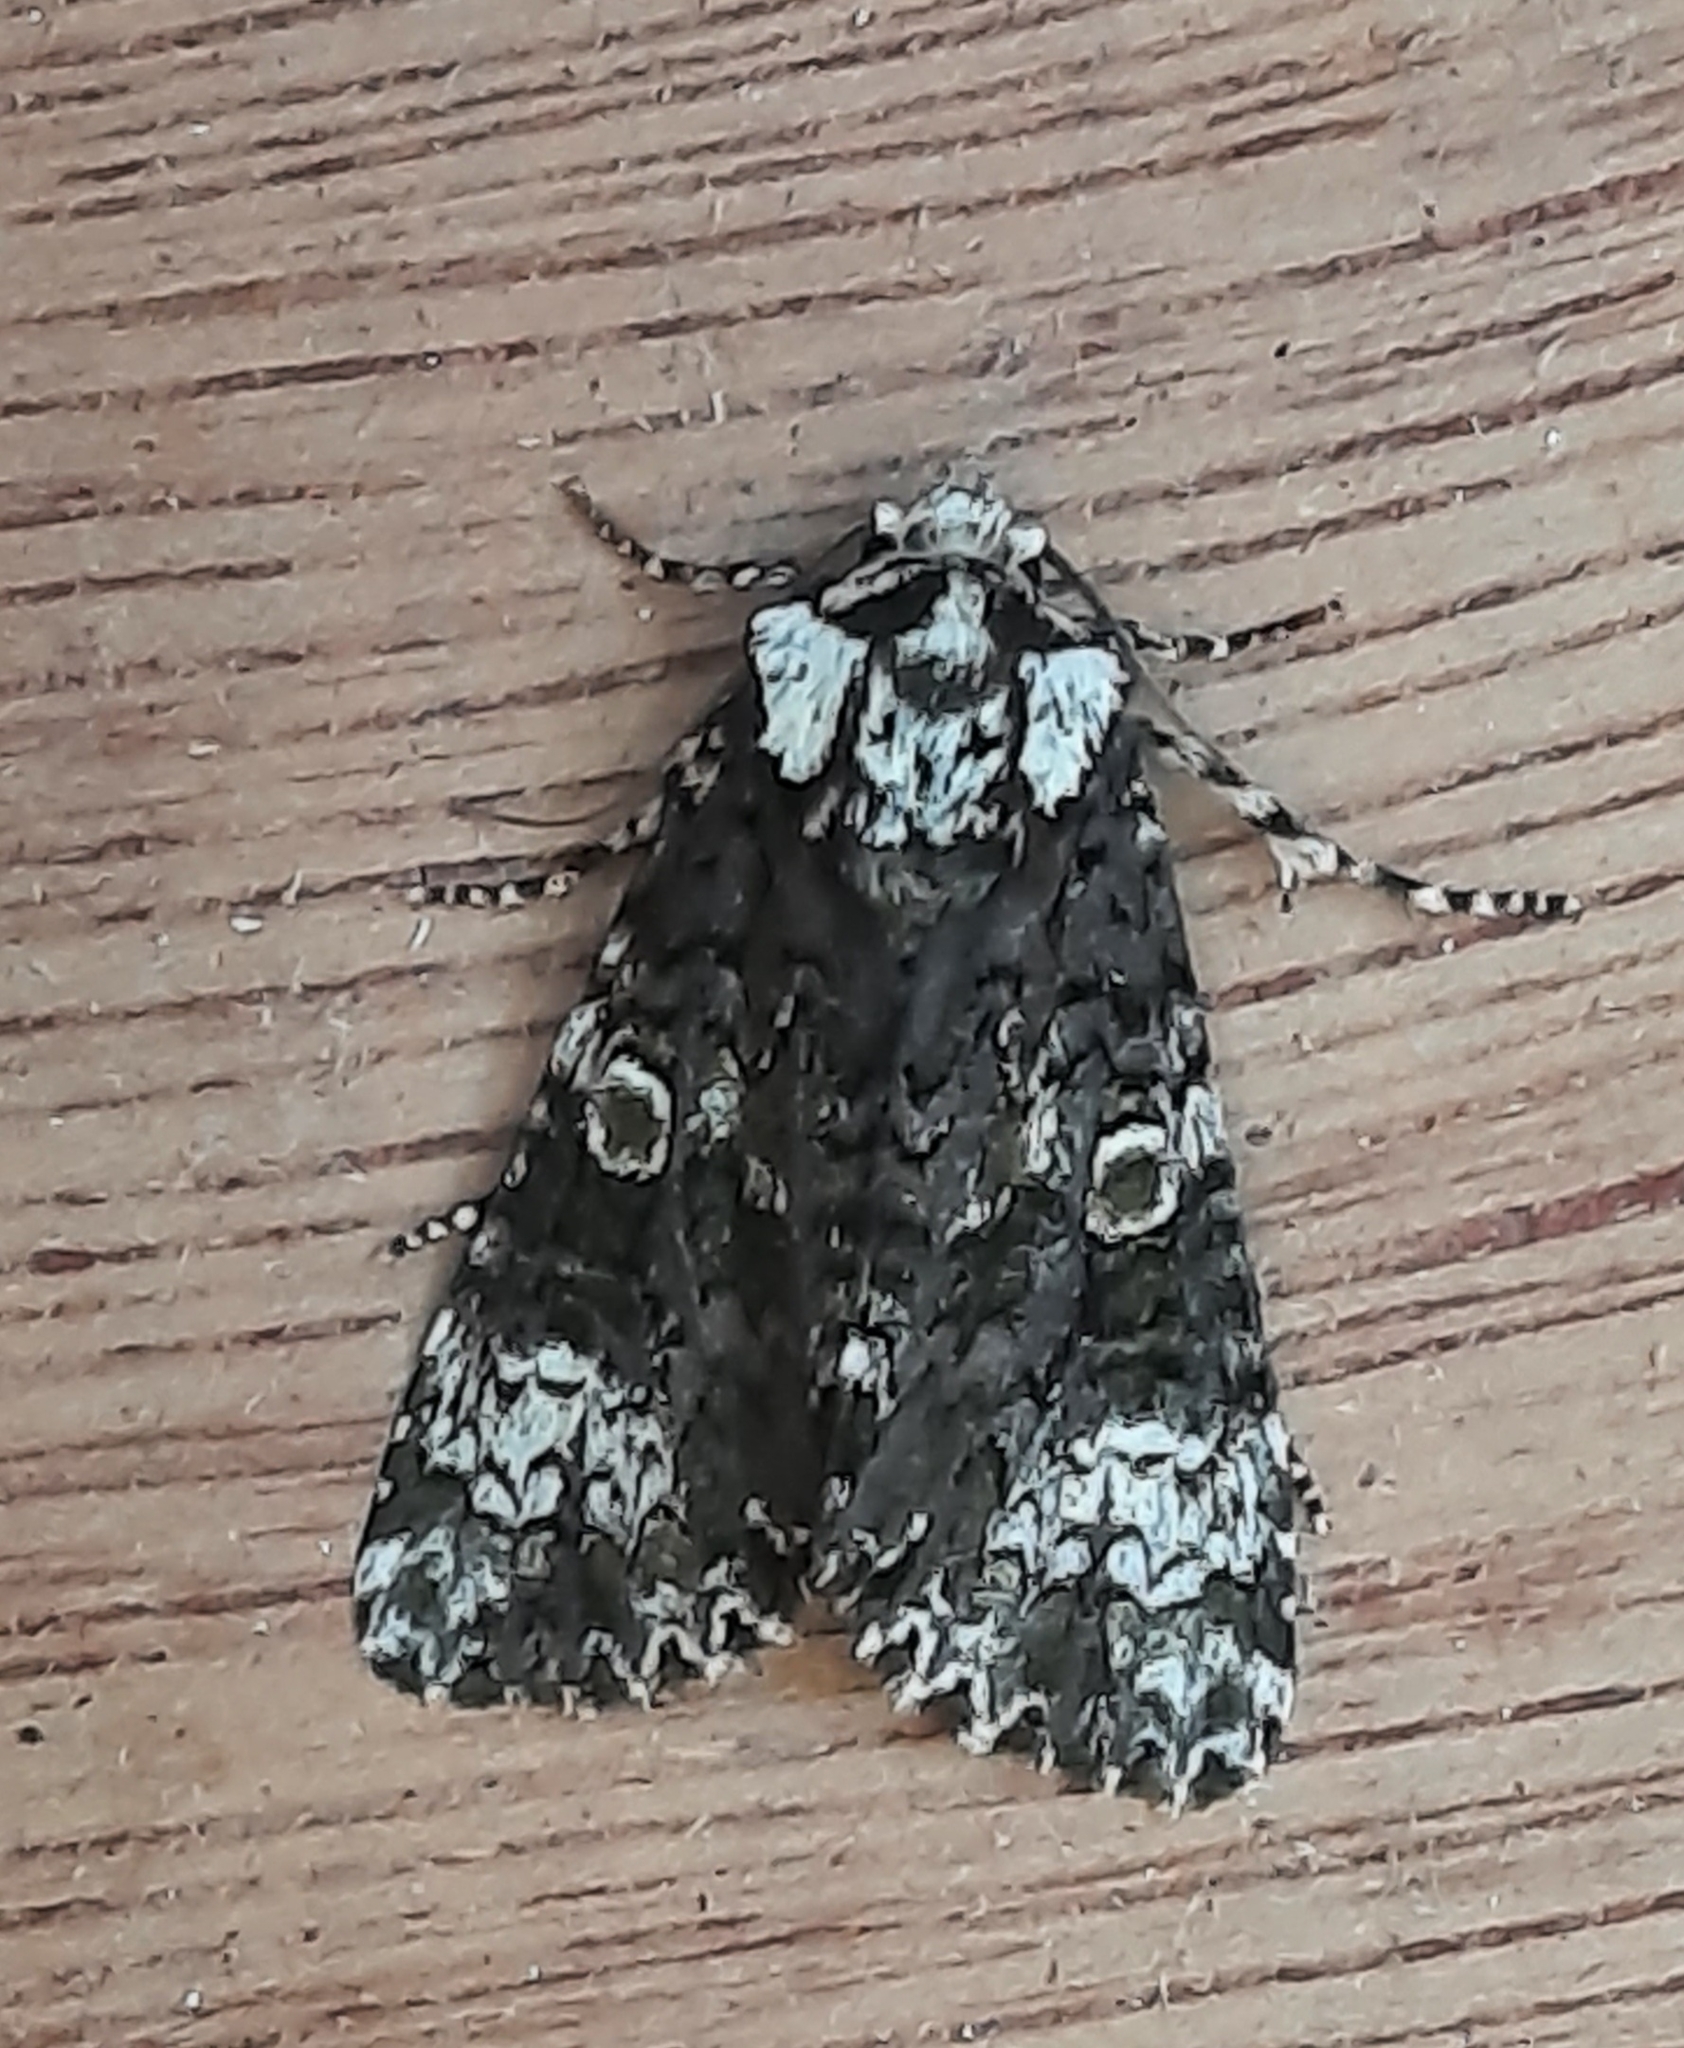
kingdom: Animalia
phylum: Arthropoda
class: Insecta
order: Lepidoptera
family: Noctuidae
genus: Craniophora
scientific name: Craniophora ligustri
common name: Coronet
